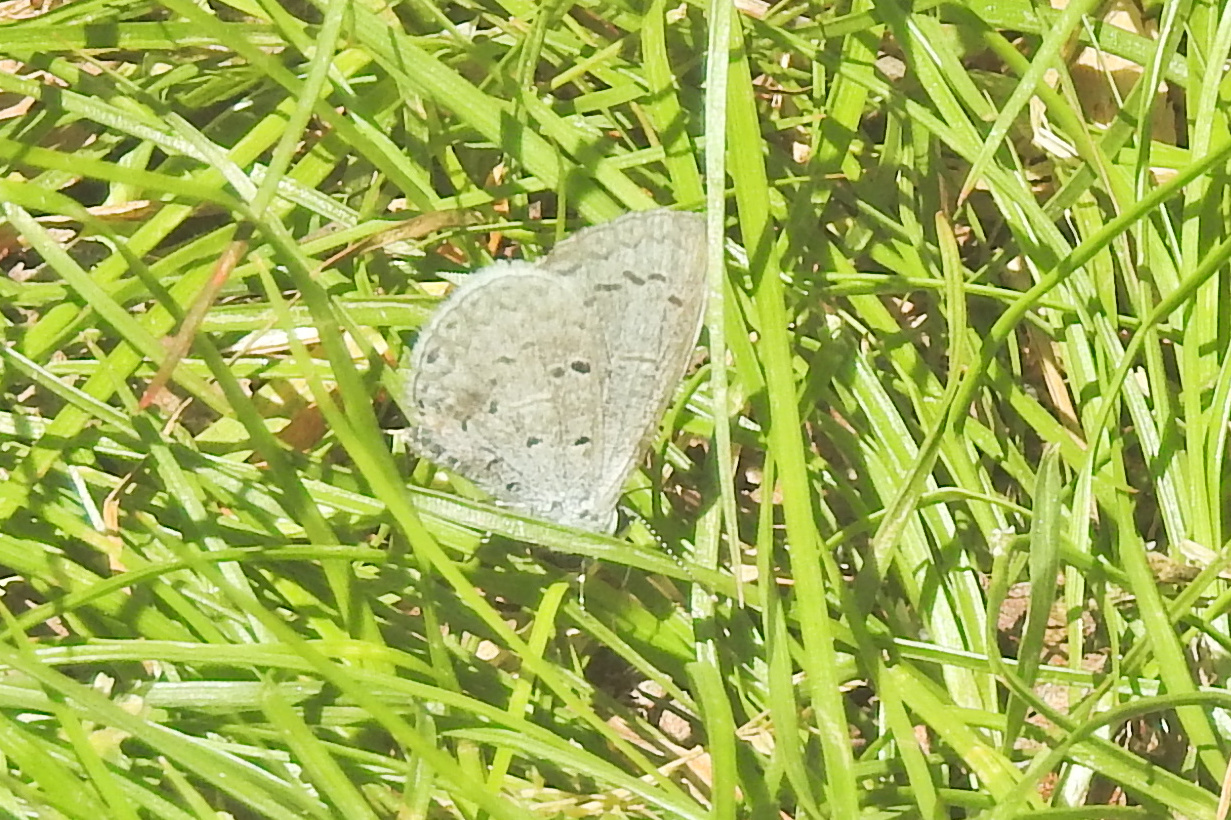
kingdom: Animalia
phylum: Arthropoda
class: Insecta
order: Lepidoptera
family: Lycaenidae
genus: Celastrina
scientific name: Celastrina ladon
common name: Spring azure
